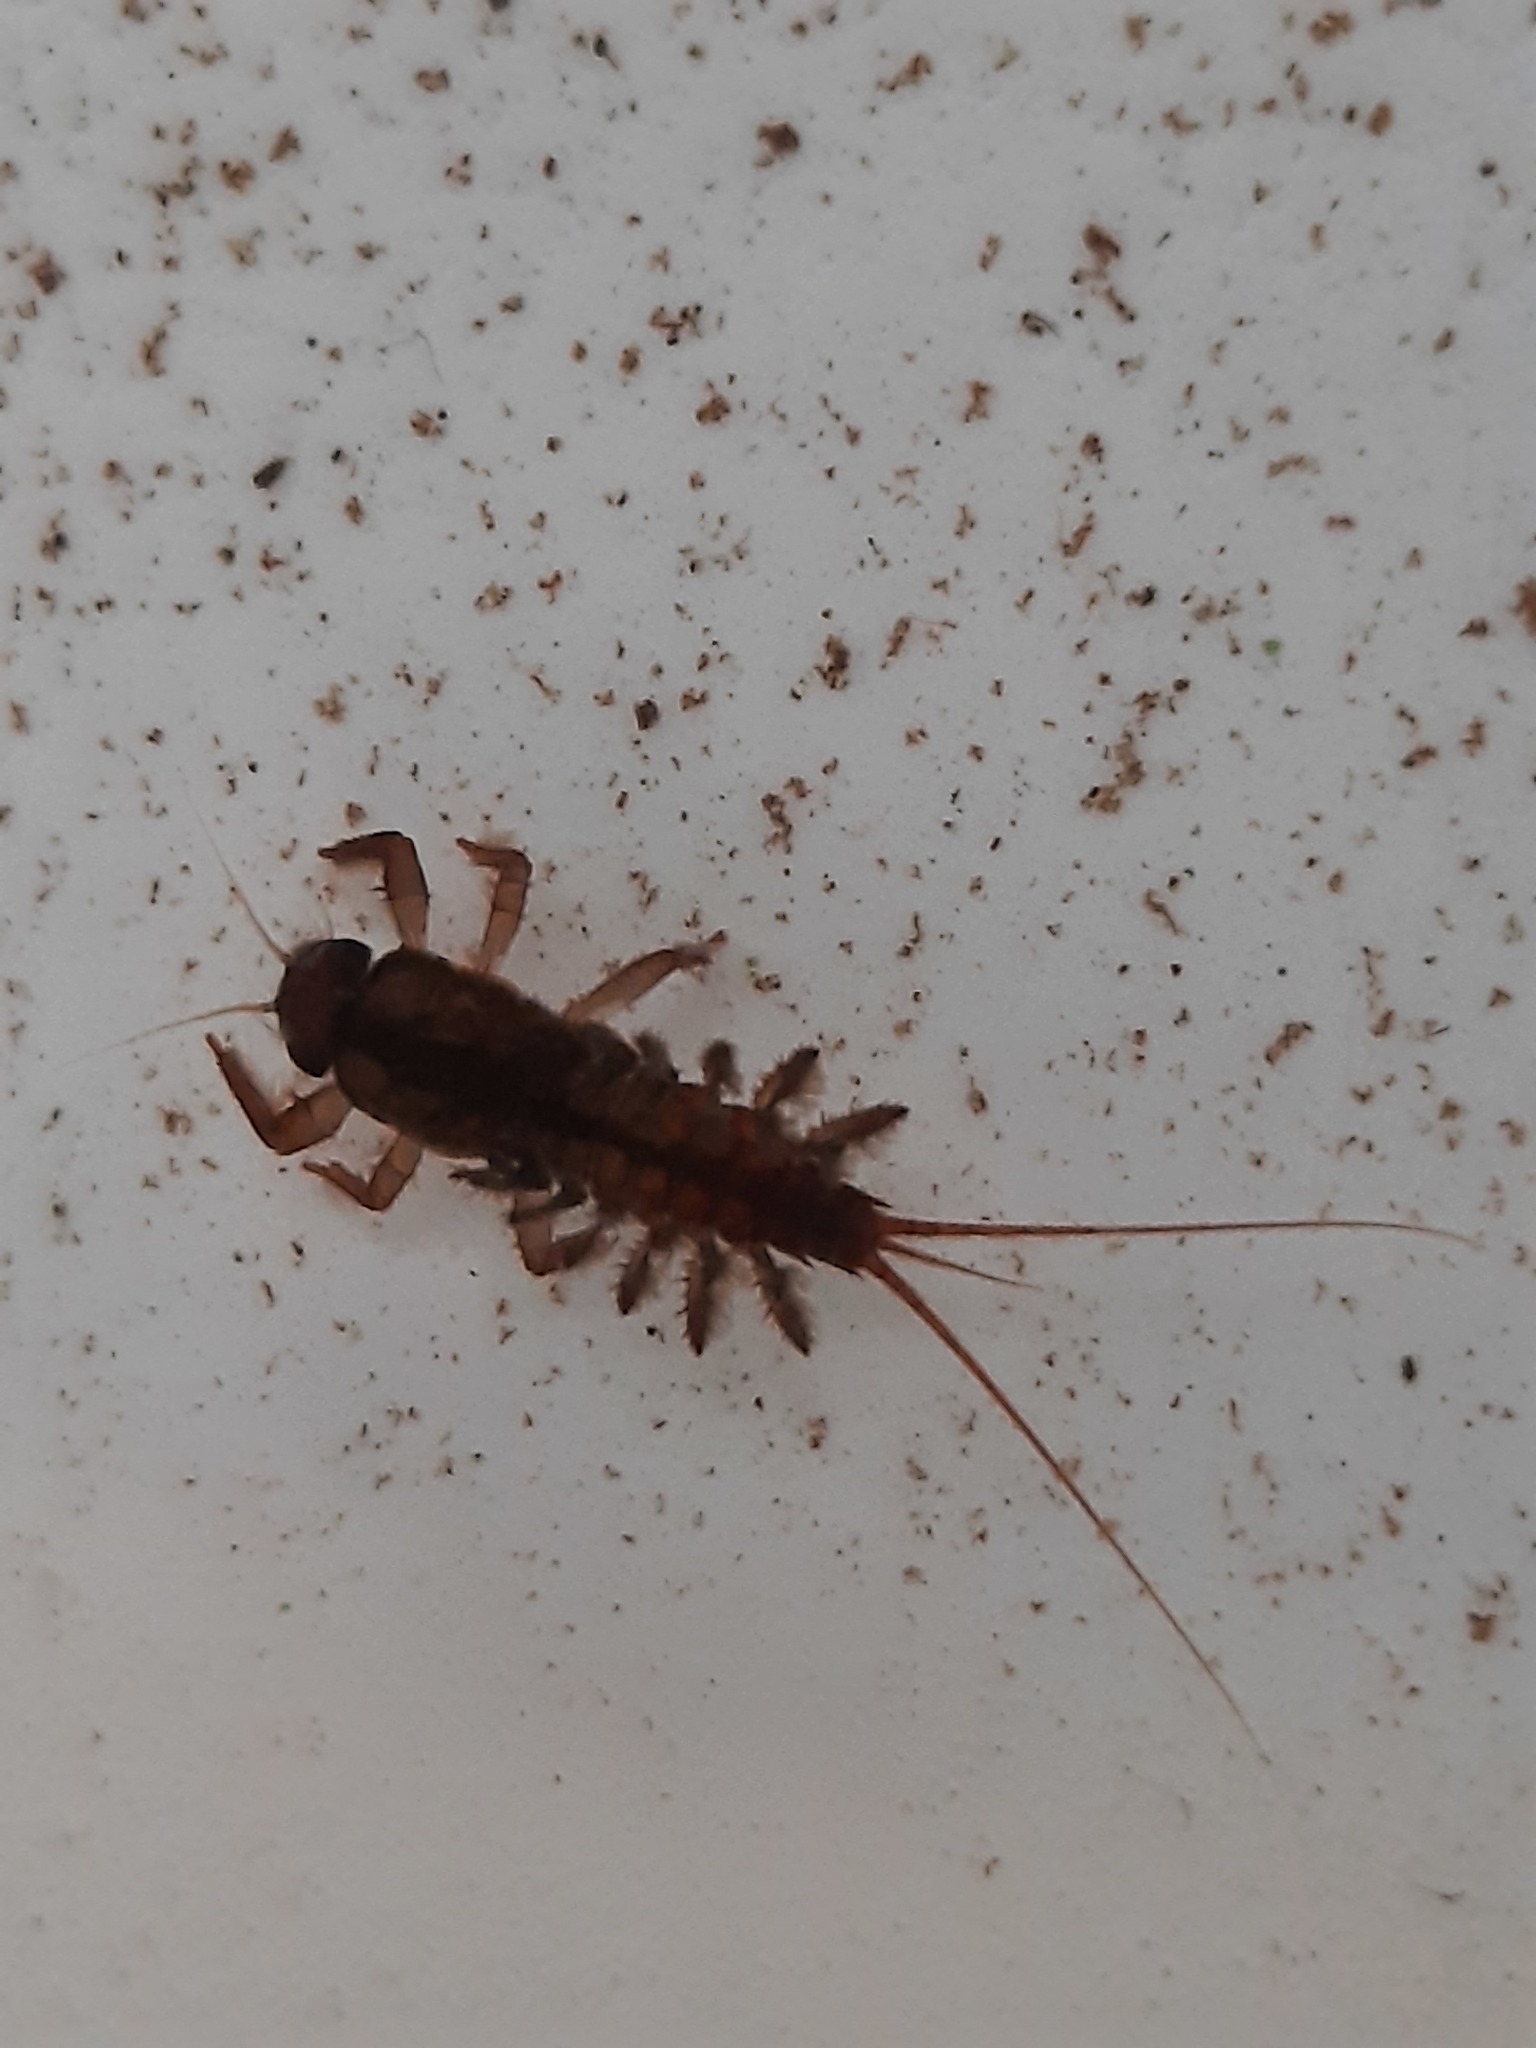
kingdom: Animalia
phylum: Arthropoda
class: Insecta
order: Ephemeroptera
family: Coloburiscidae
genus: Coloburiscus
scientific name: Coloburiscus humeralis
